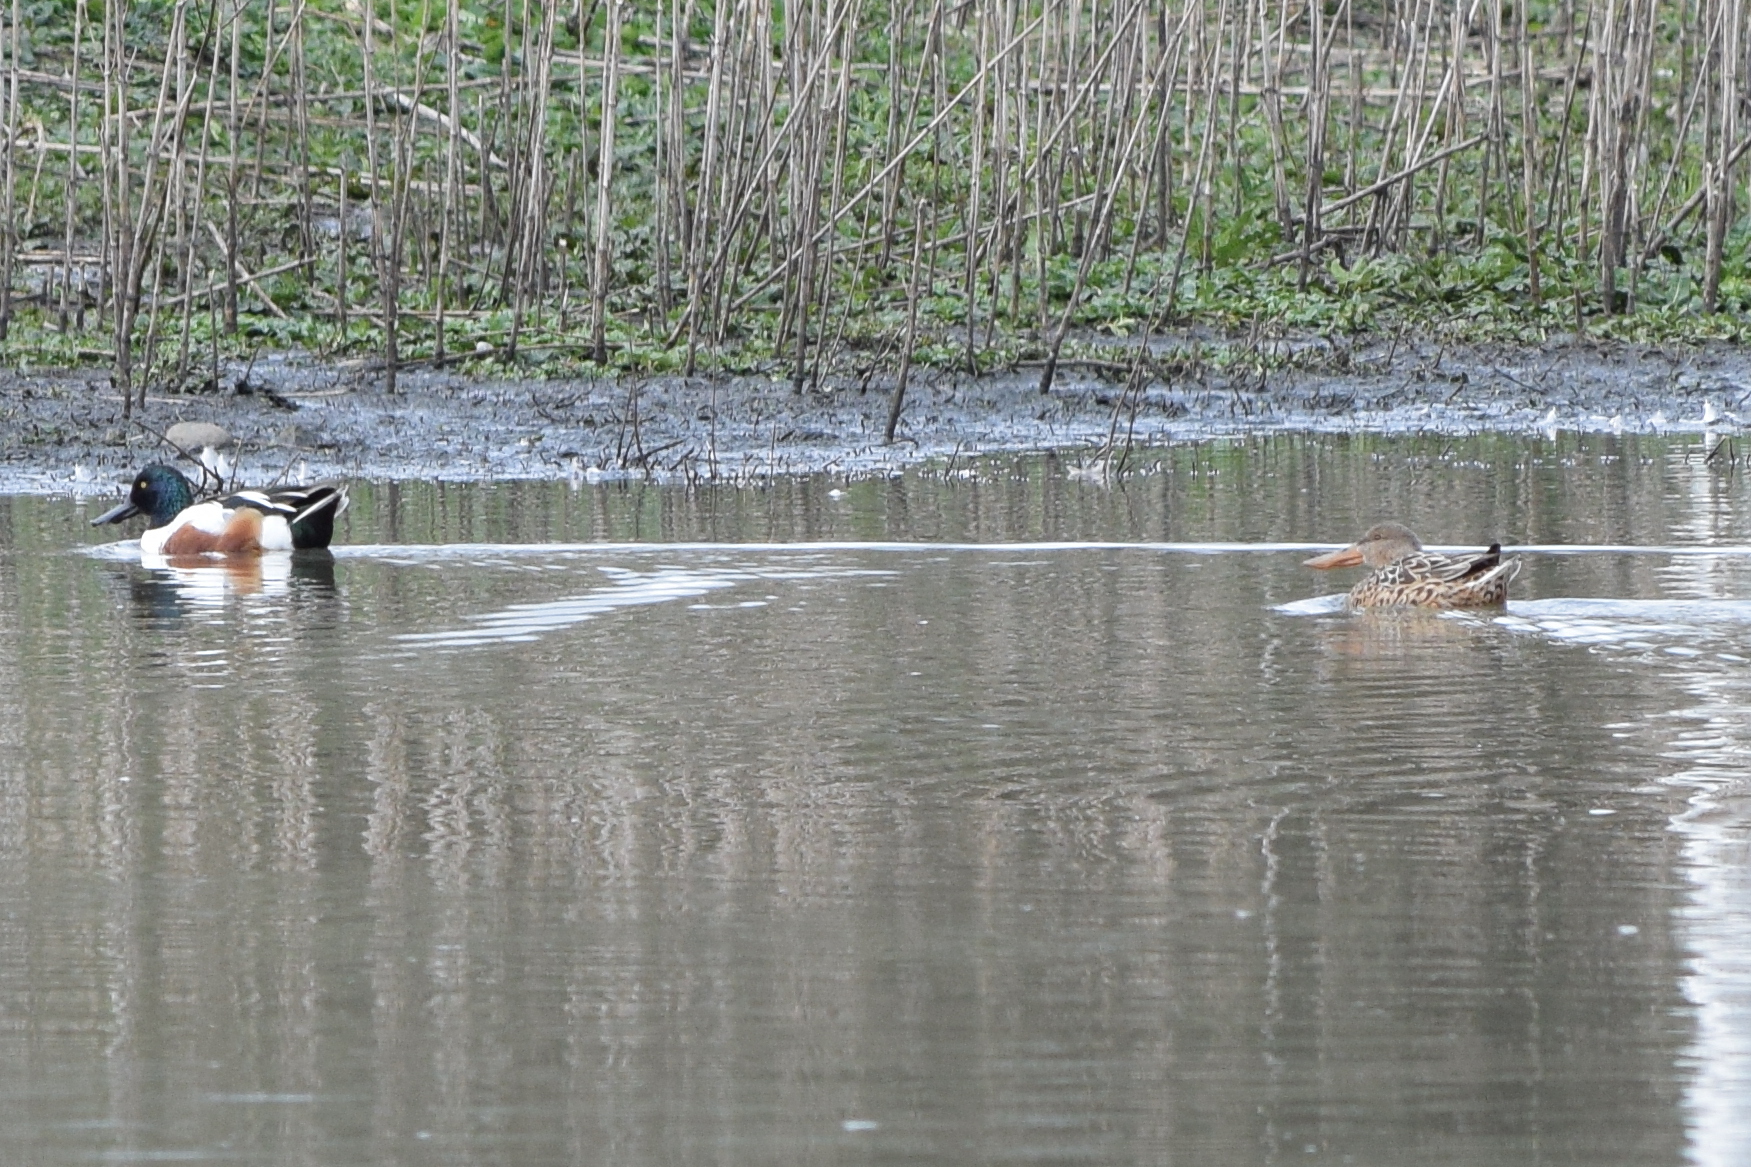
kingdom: Animalia
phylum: Chordata
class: Aves
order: Anseriformes
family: Anatidae
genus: Spatula
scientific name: Spatula clypeata
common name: Northern shoveler
